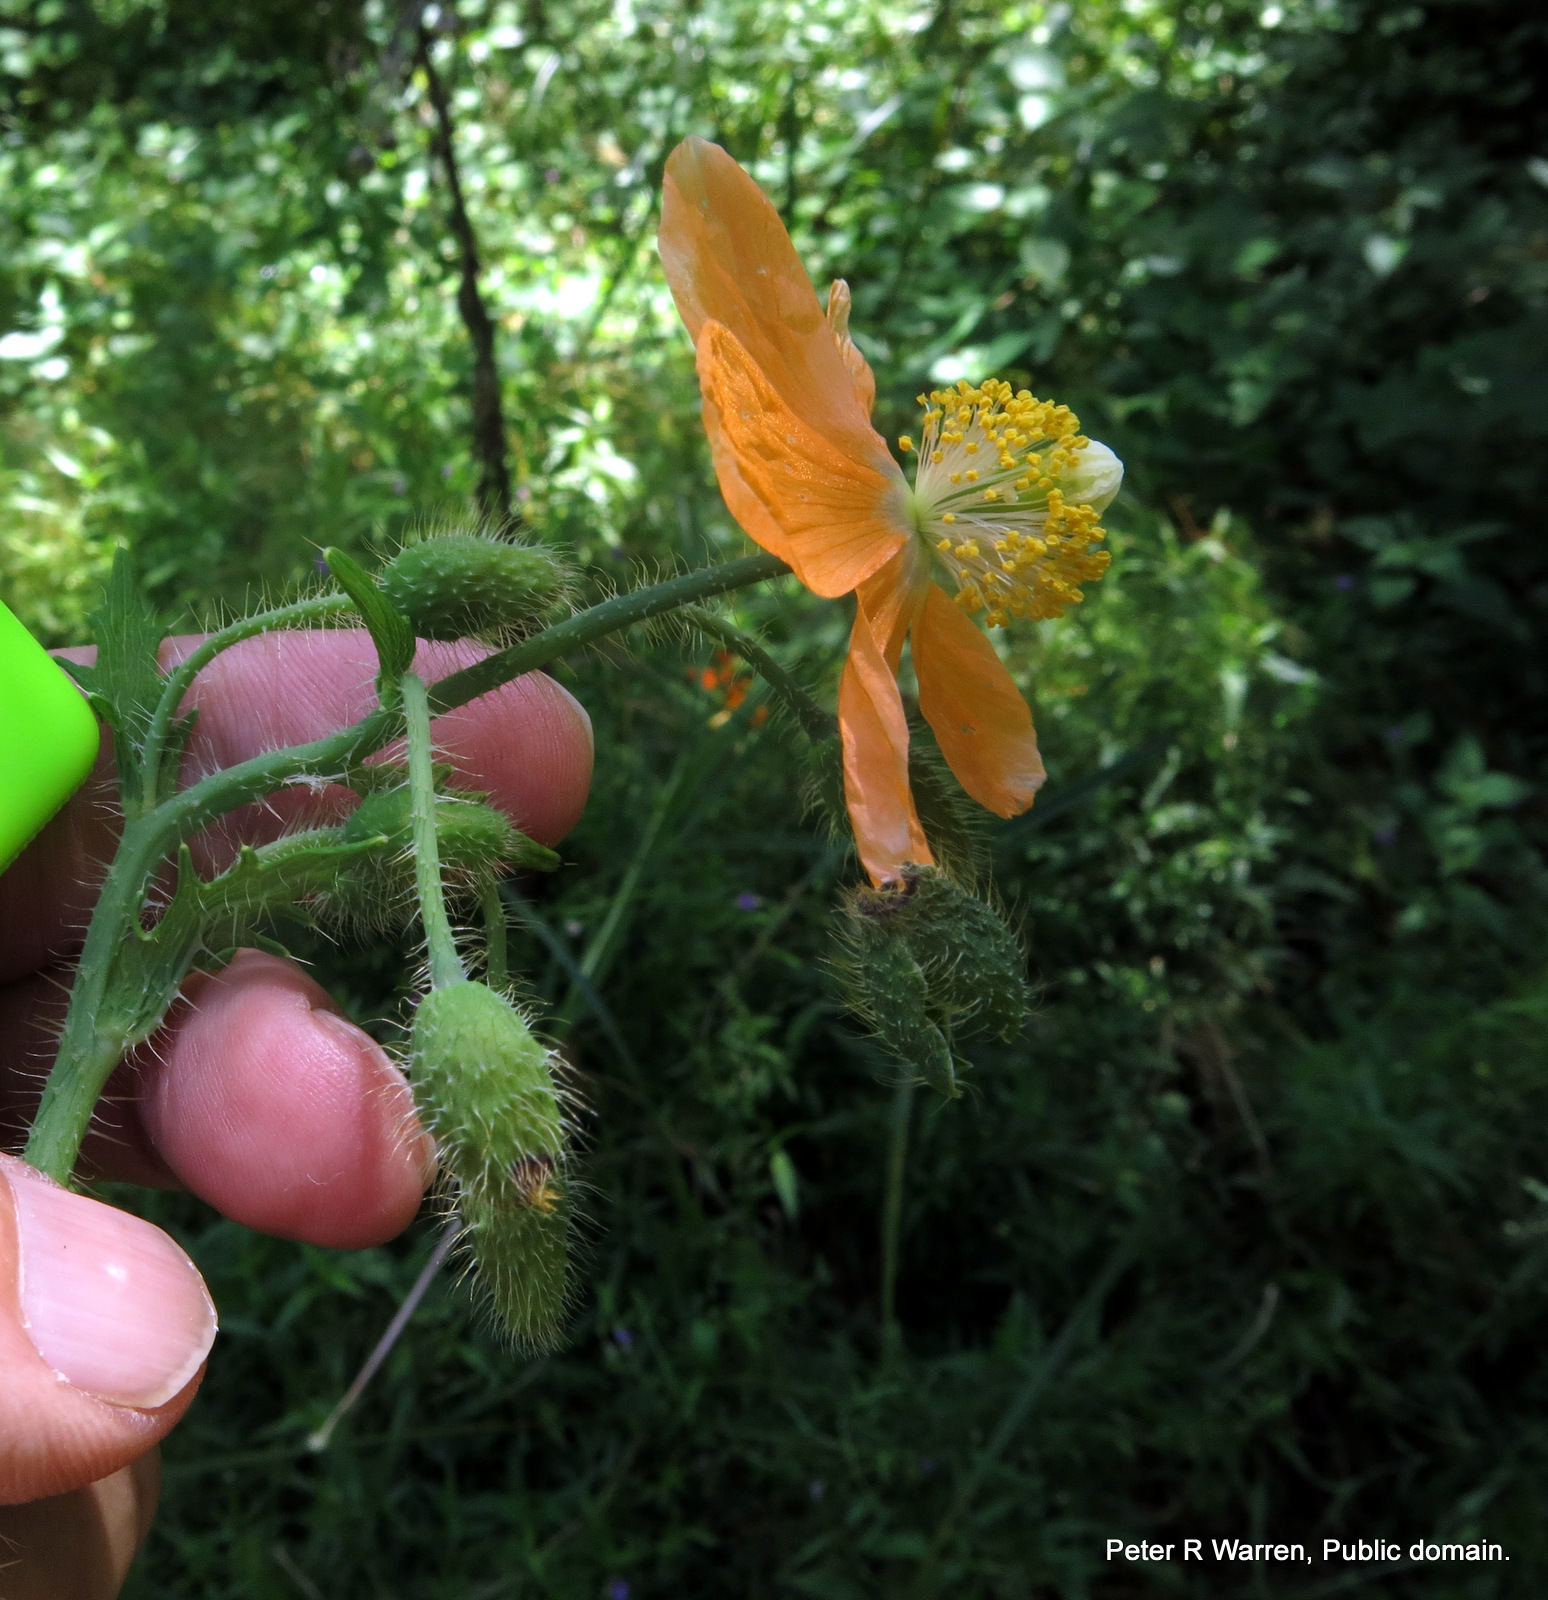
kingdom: Plantae
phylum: Tracheophyta
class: Magnoliopsida
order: Ranunculales
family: Papaveraceae
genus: Papaver
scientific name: Papaver aculeatum
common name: Bristle poppy
